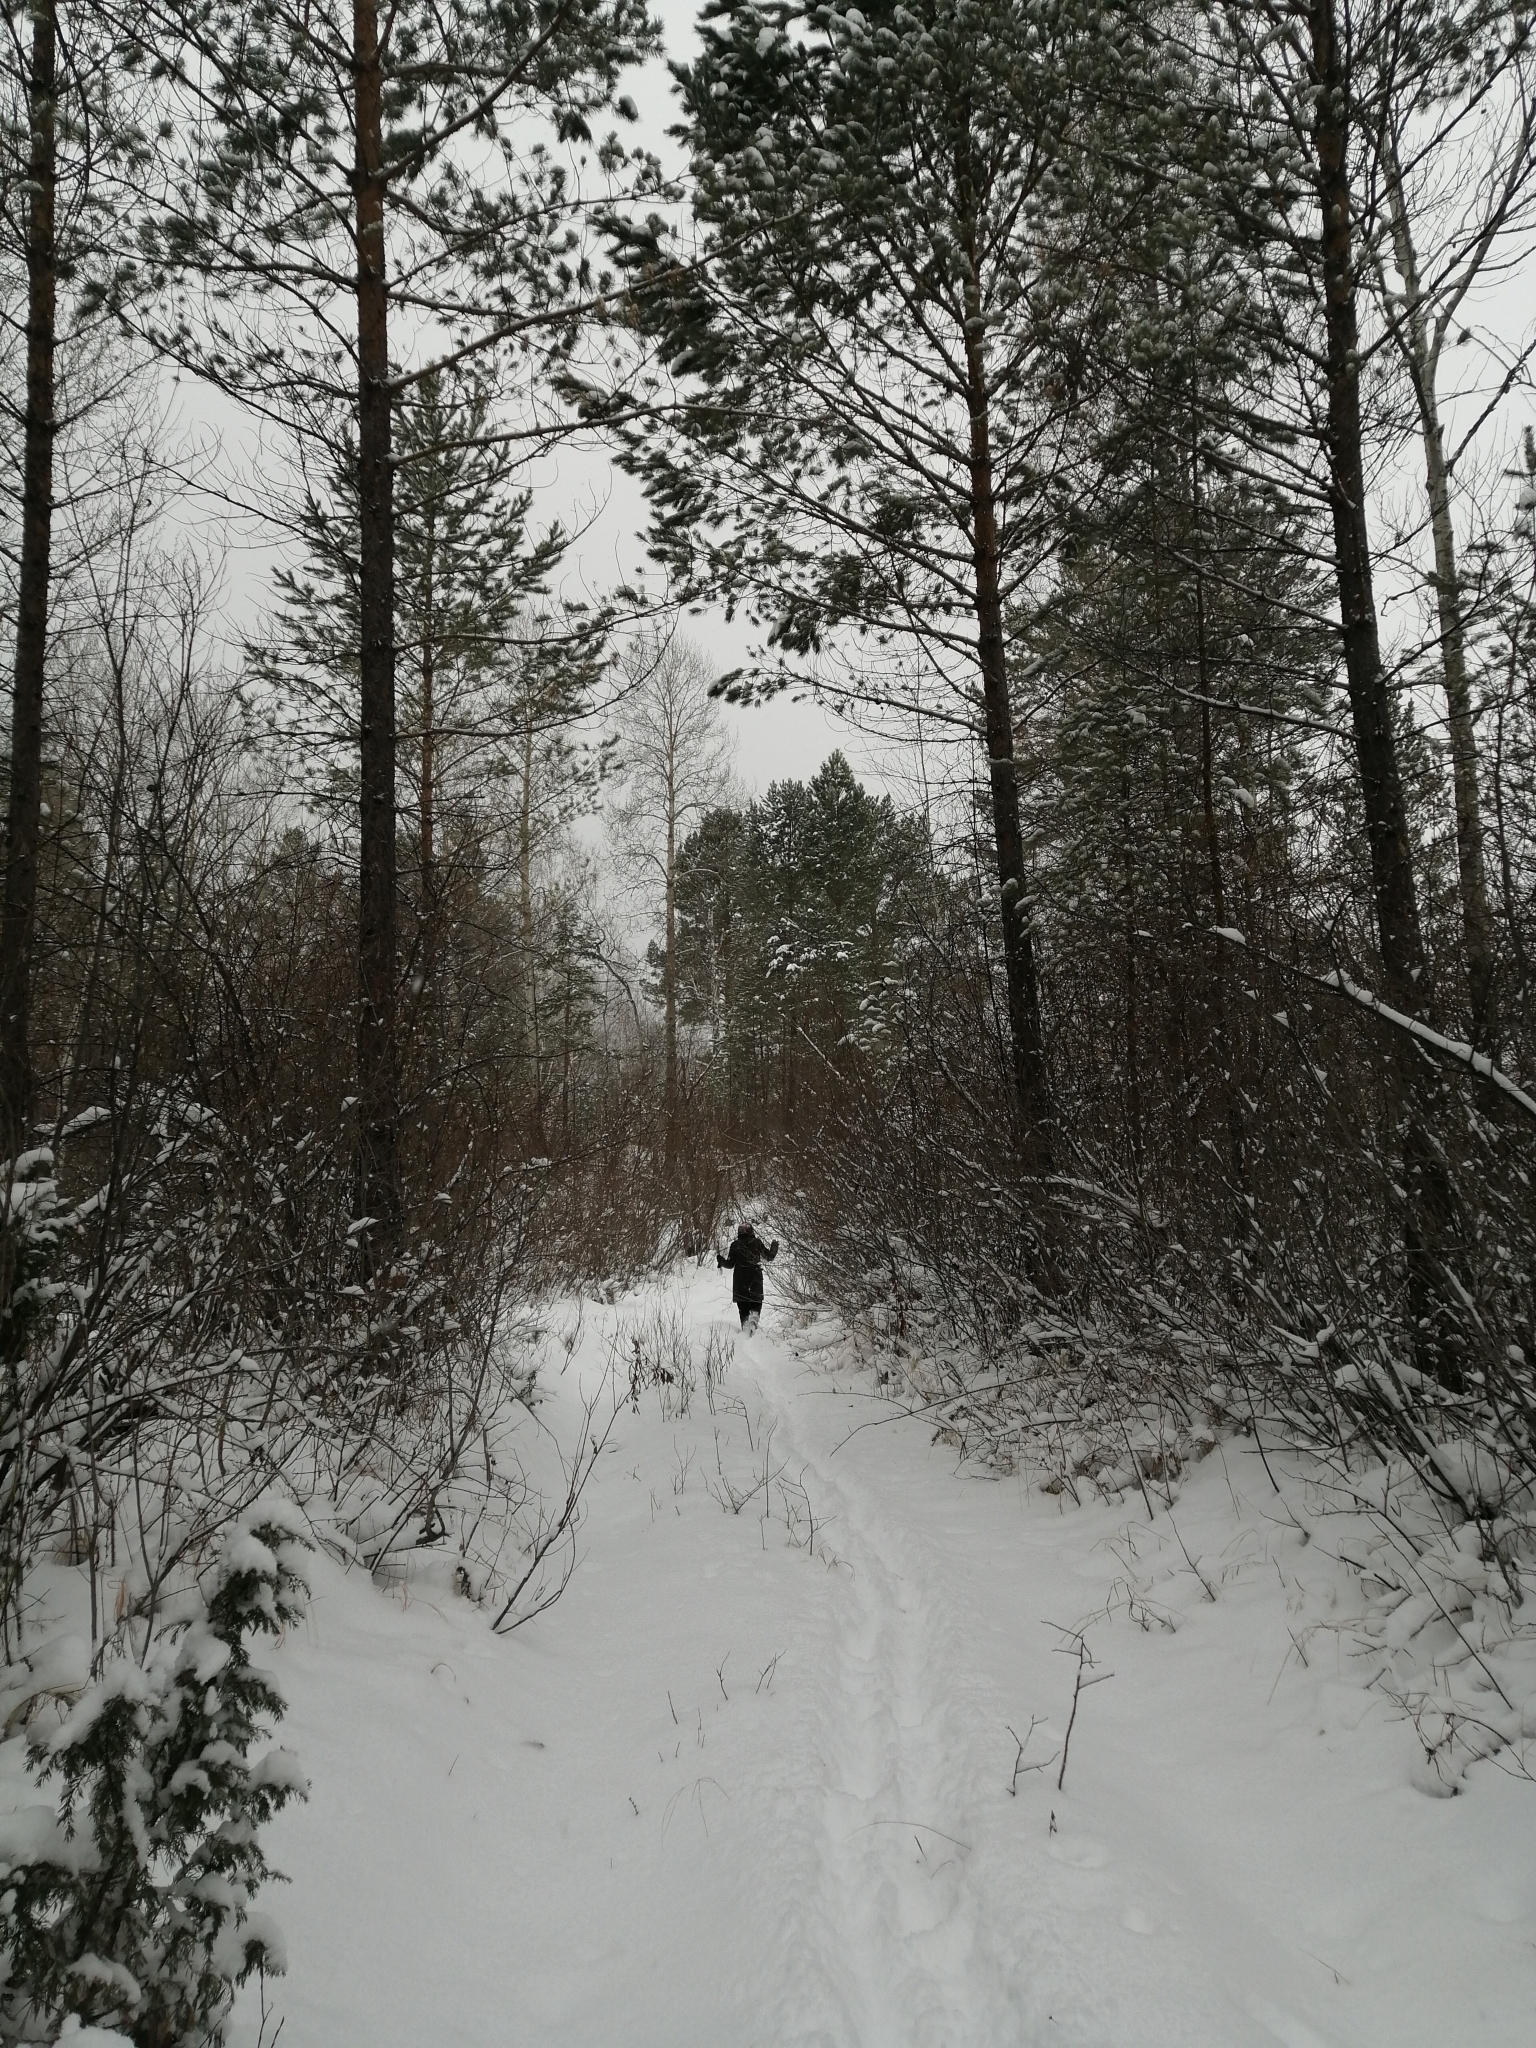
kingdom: Plantae
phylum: Tracheophyta
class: Pinopsida
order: Pinales
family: Pinaceae
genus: Pinus
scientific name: Pinus sylvestris
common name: Scots pine
